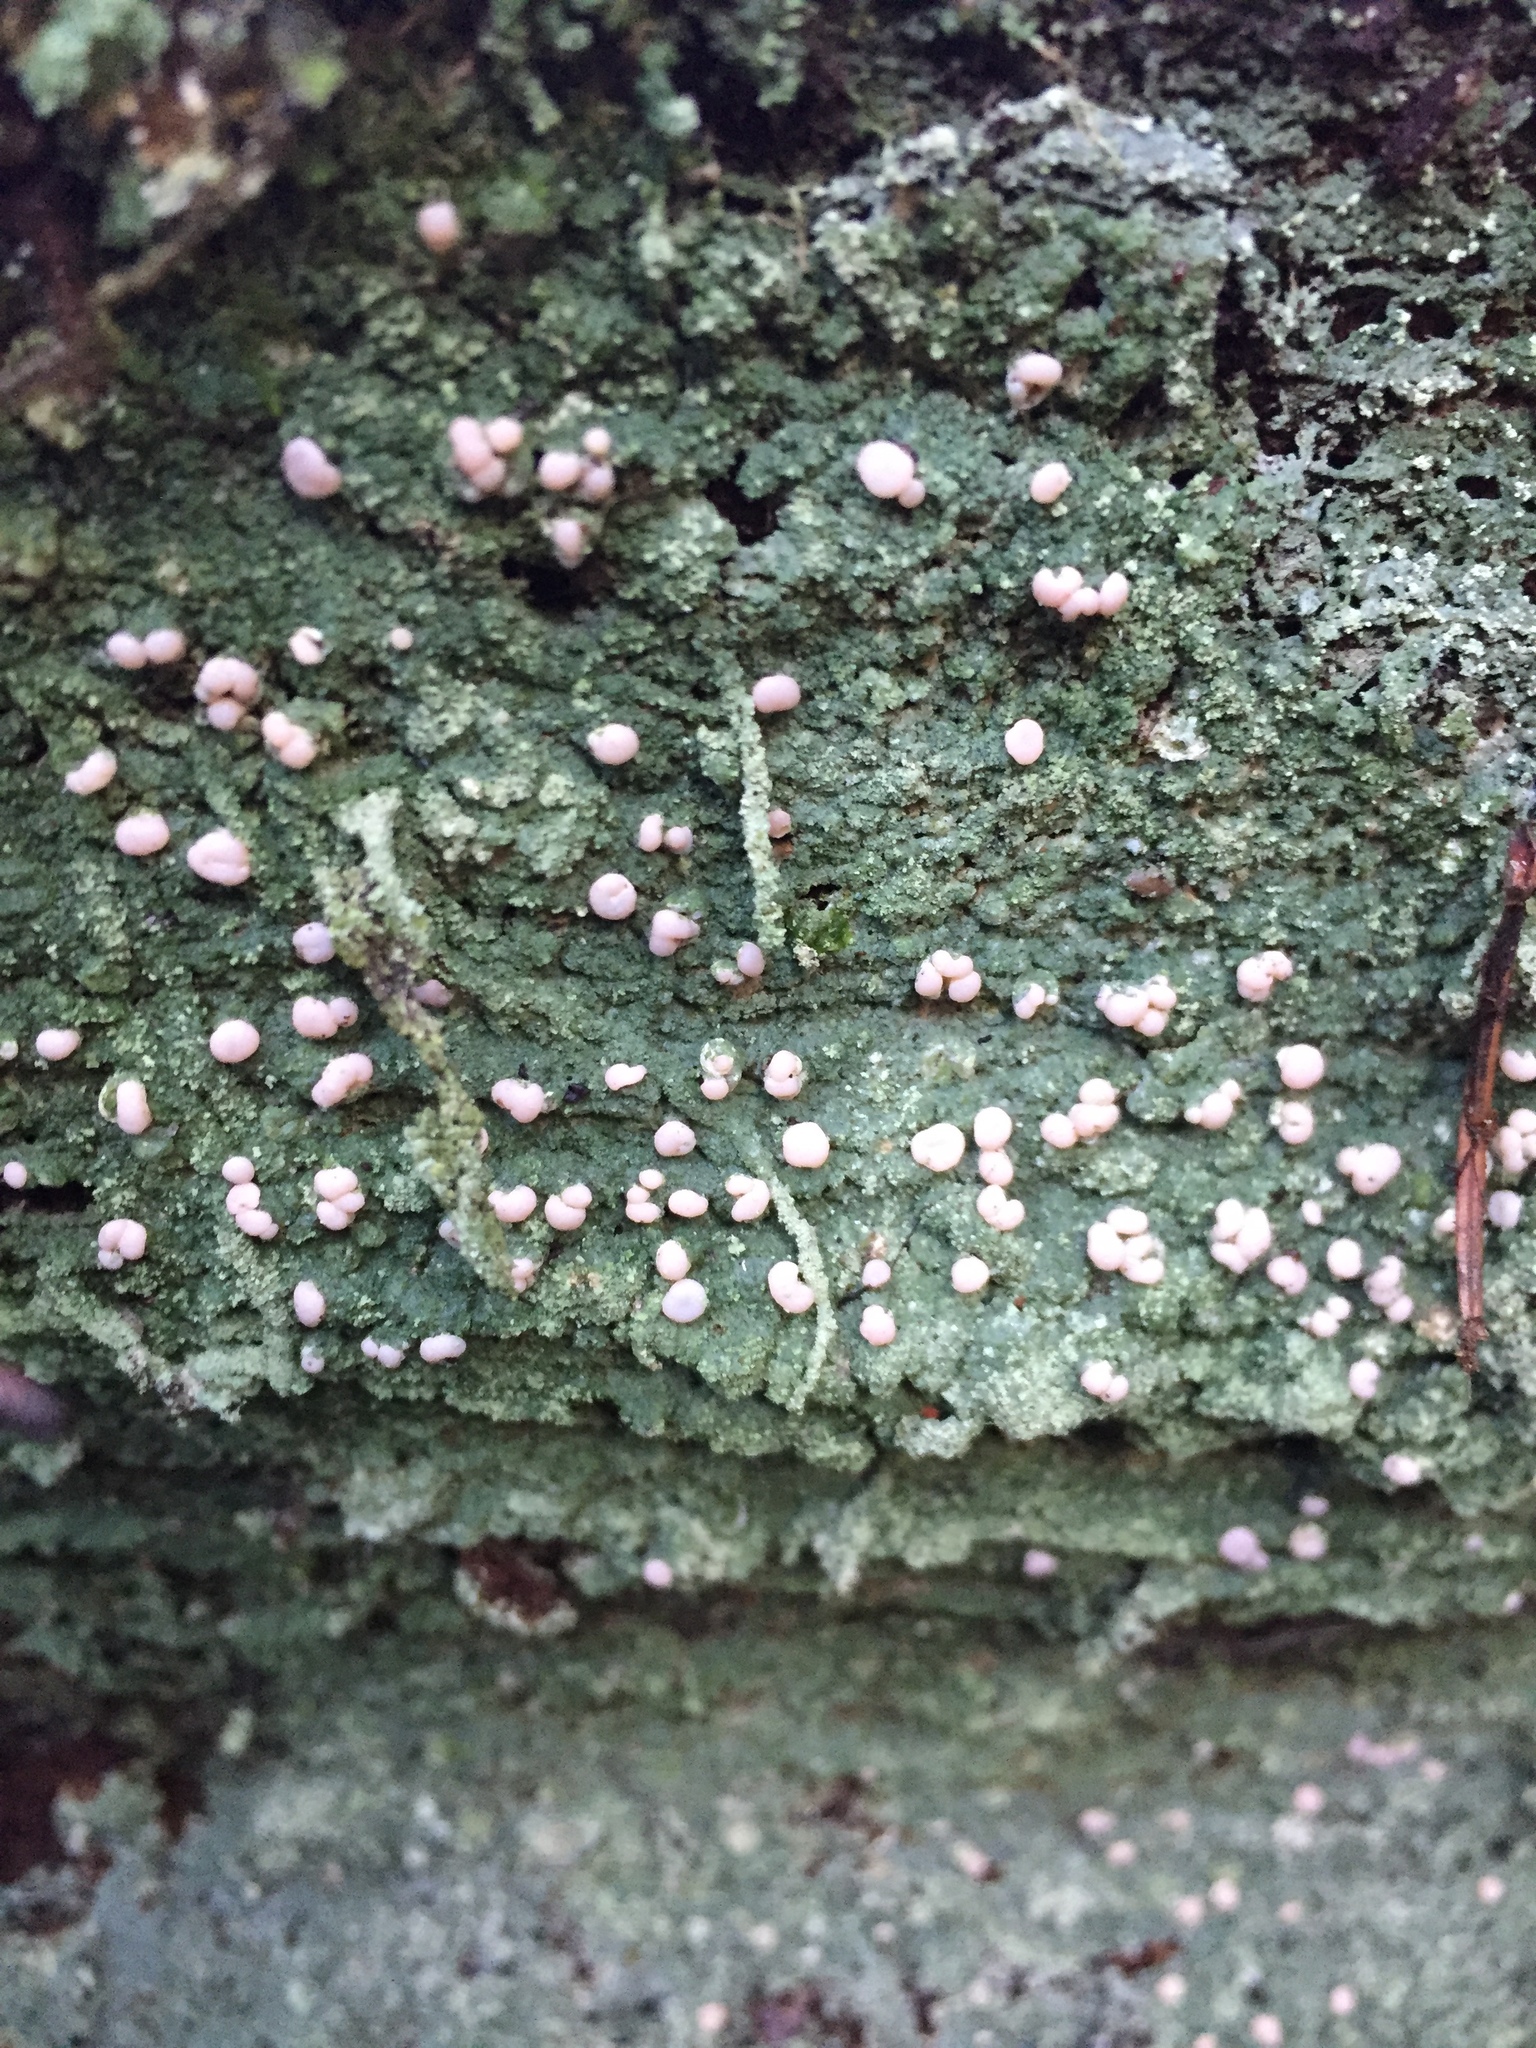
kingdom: Fungi
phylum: Ascomycota
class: Lecanoromycetes
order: Pertusariales
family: Icmadophilaceae
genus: Icmadophila
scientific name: Icmadophila ericetorum
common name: Candy lichen
